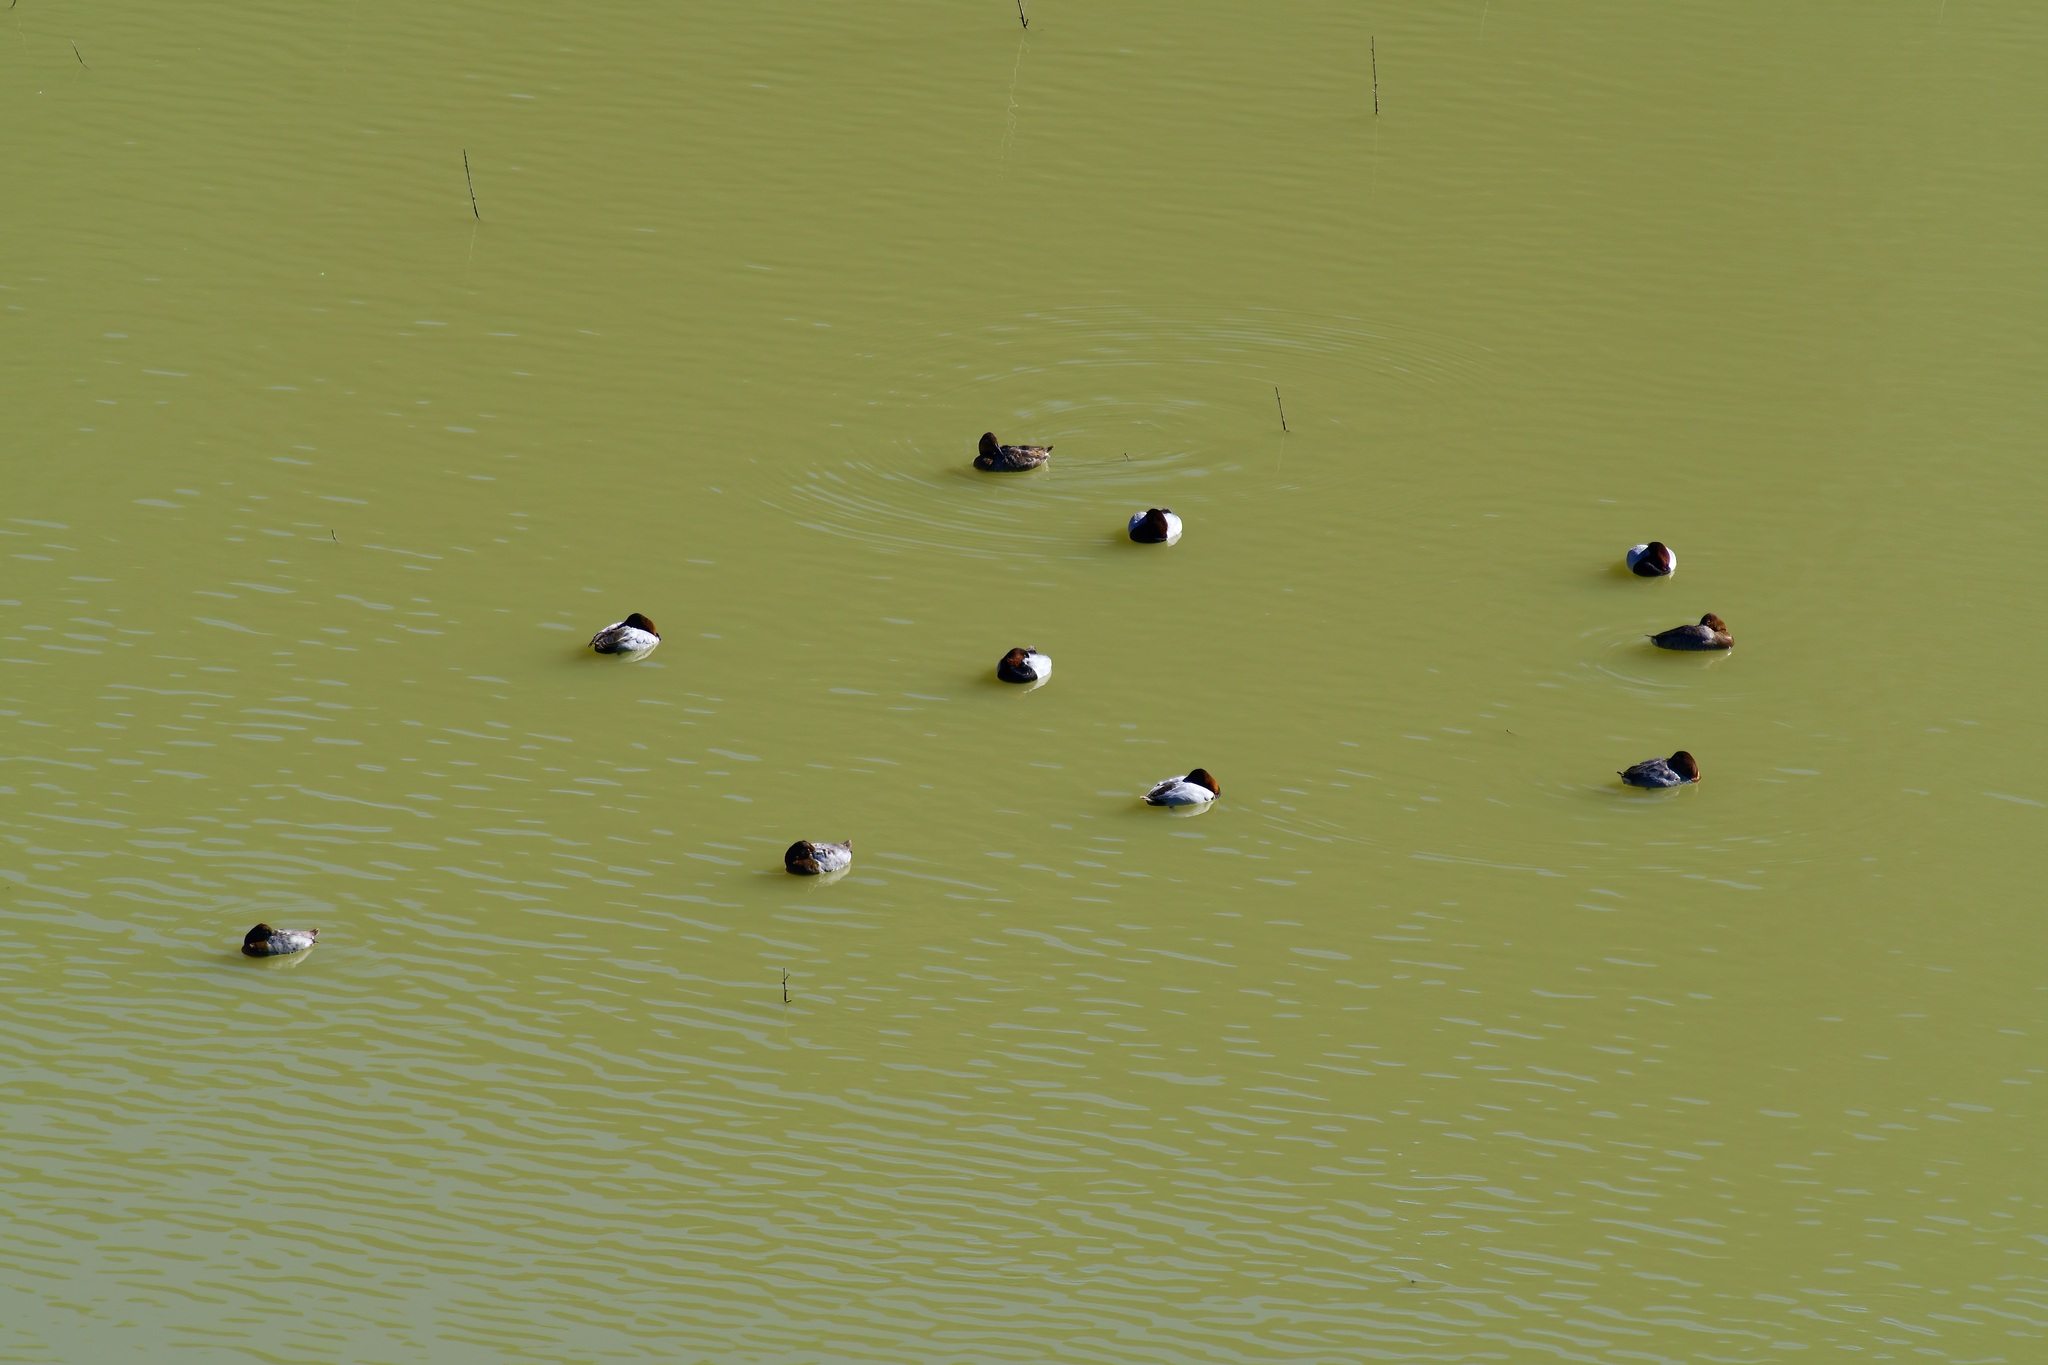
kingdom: Animalia
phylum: Chordata
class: Aves
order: Anseriformes
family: Anatidae
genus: Aythya
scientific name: Aythya valisineria
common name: Canvasback
